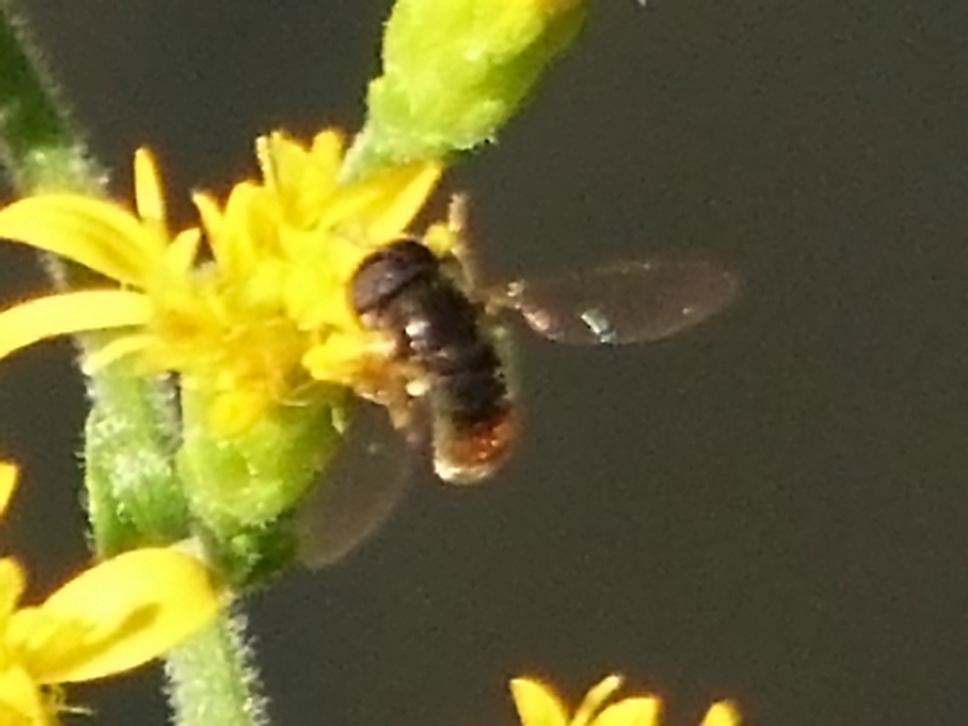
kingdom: Animalia
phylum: Arthropoda
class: Insecta
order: Diptera
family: Syrphidae
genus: Paragus
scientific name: Paragus haemorrhous
